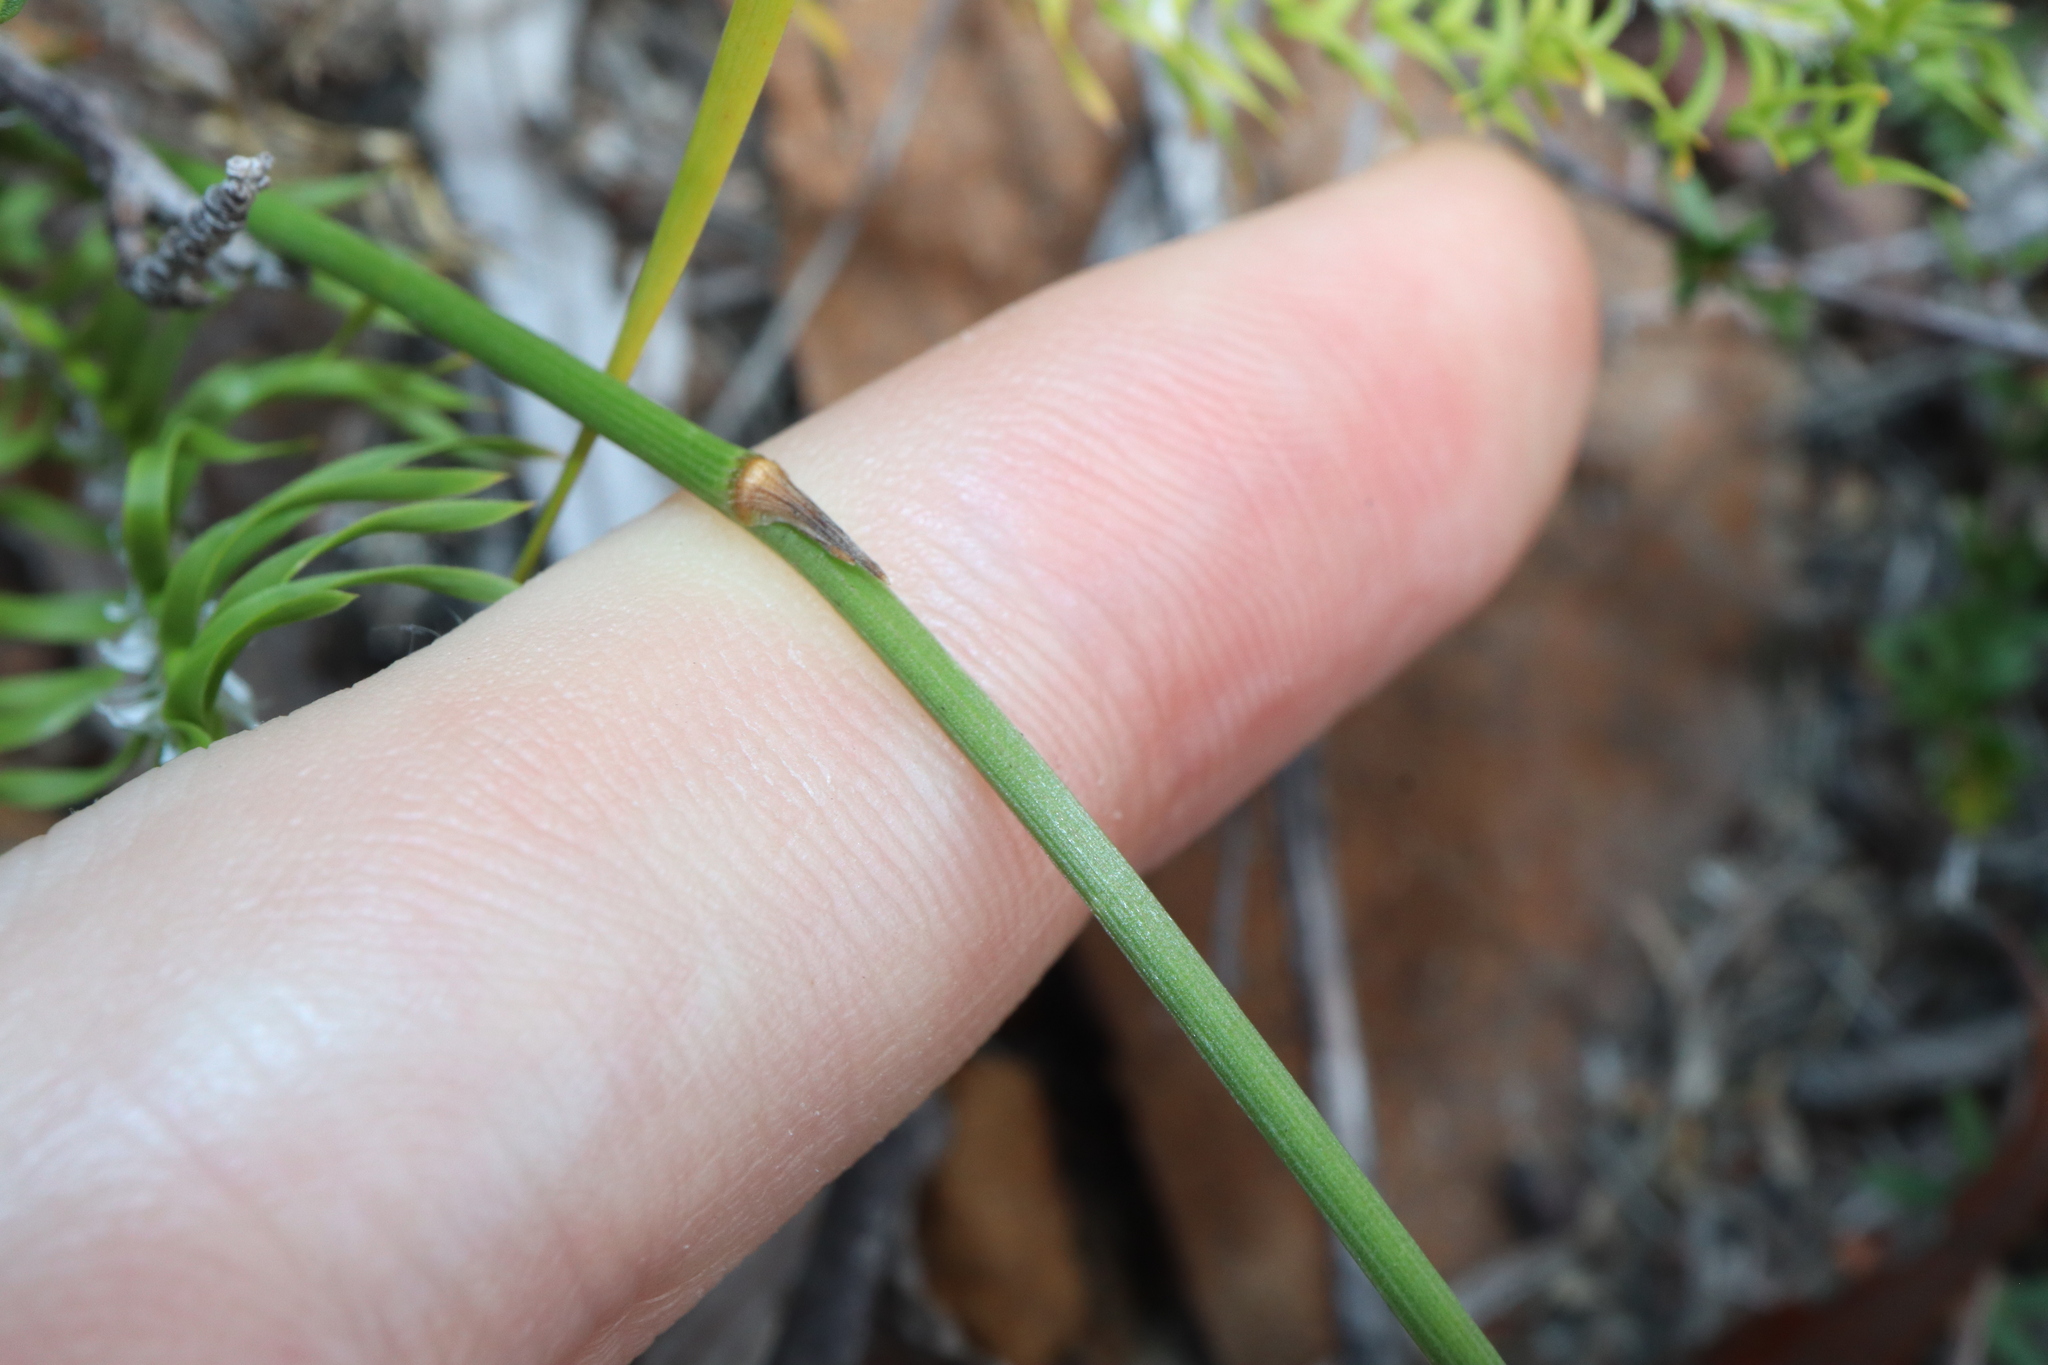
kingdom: Plantae
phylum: Tracheophyta
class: Liliopsida
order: Asparagales
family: Asparagaceae
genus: Thysanotus
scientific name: Thysanotus juncifolius
